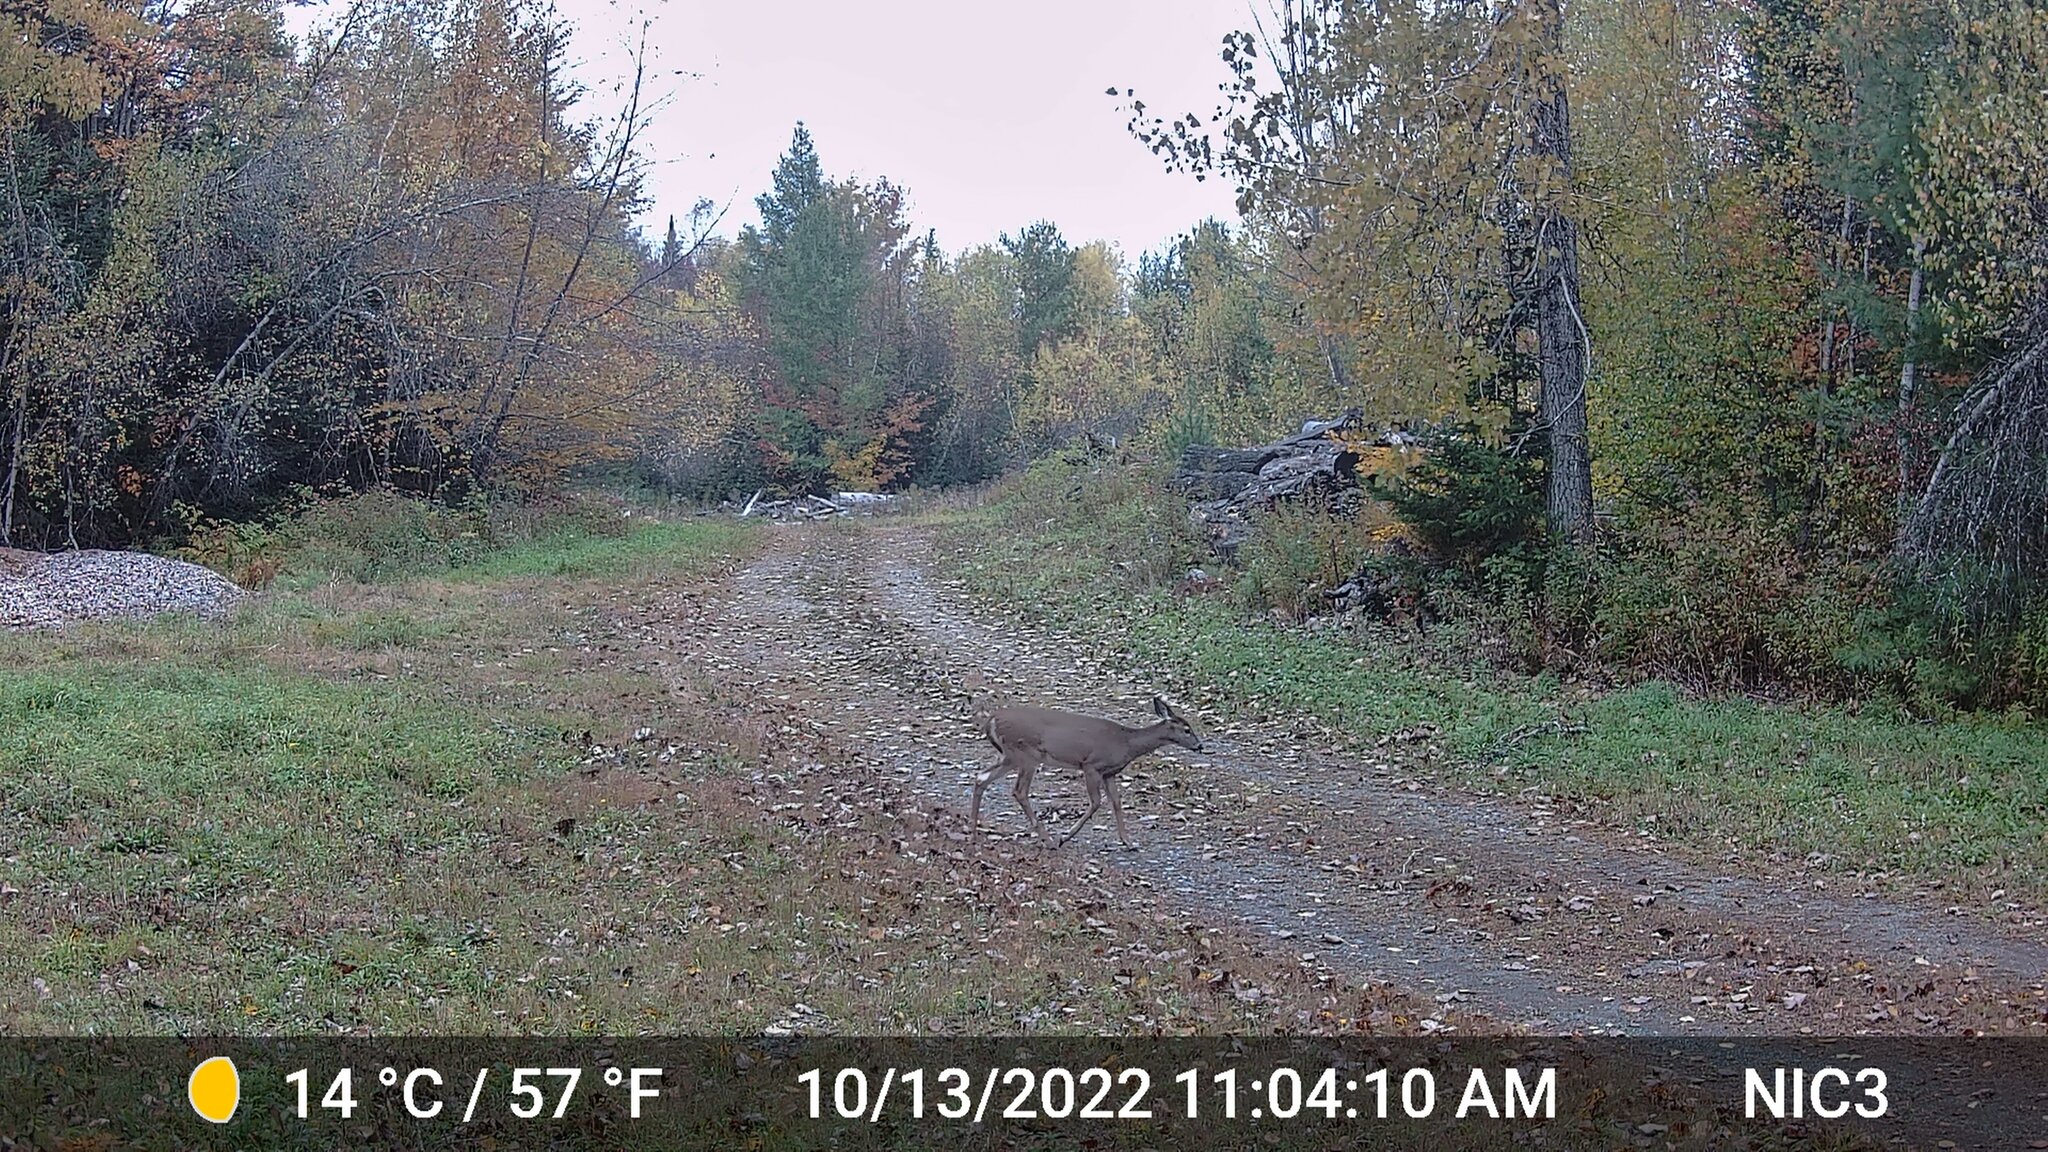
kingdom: Animalia
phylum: Chordata
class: Mammalia
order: Artiodactyla
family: Cervidae
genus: Odocoileus
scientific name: Odocoileus virginianus
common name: White-tailed deer
